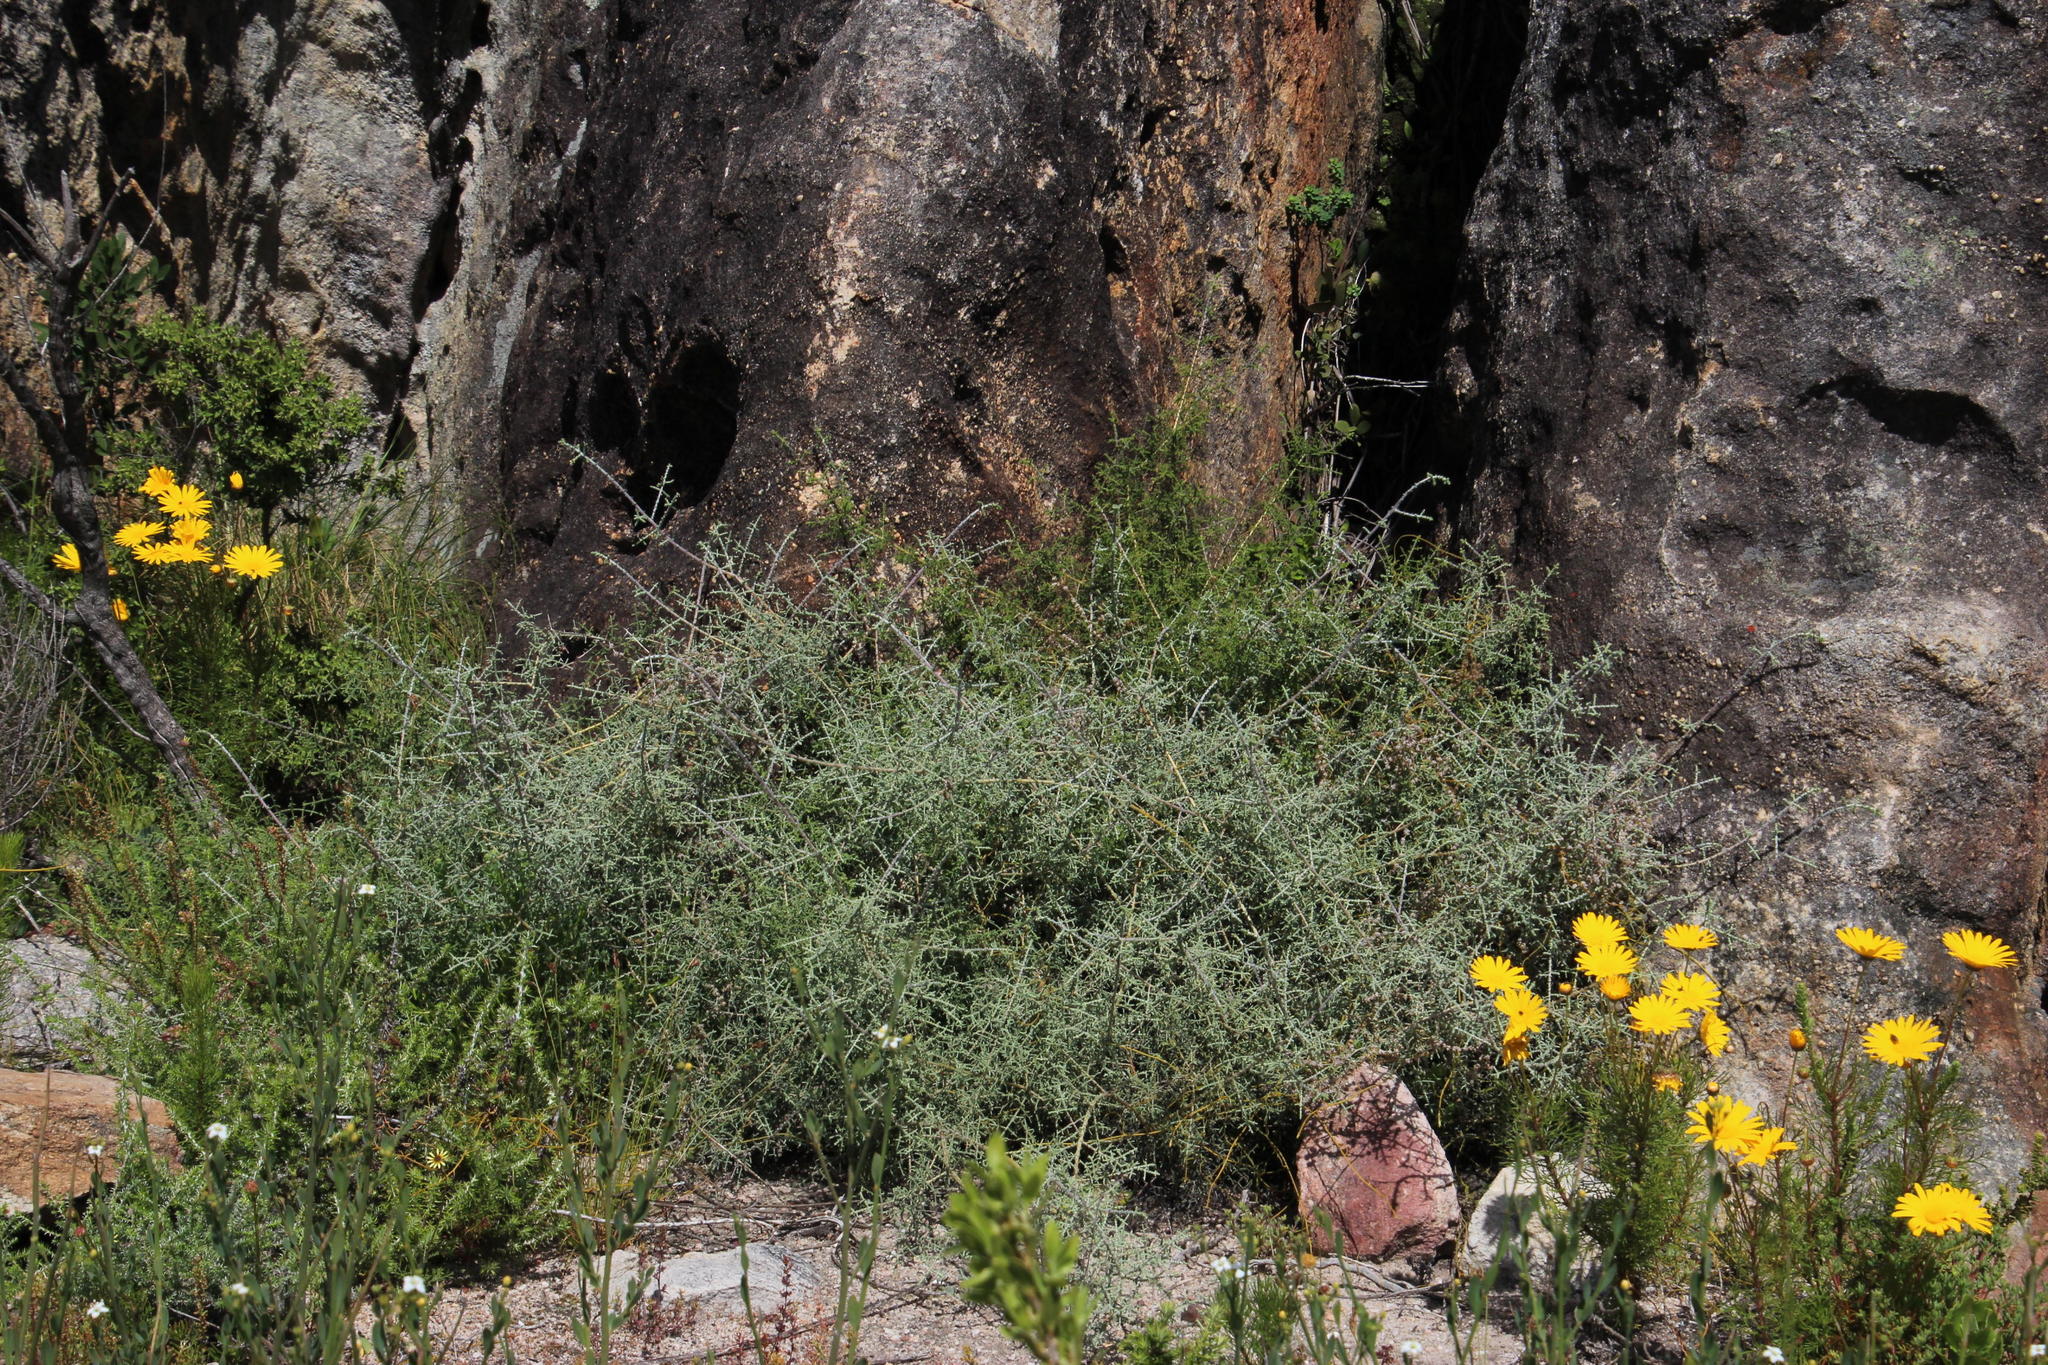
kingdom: Plantae
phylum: Tracheophyta
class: Magnoliopsida
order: Asterales
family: Asteraceae
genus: Seriphium
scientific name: Seriphium plumosum
